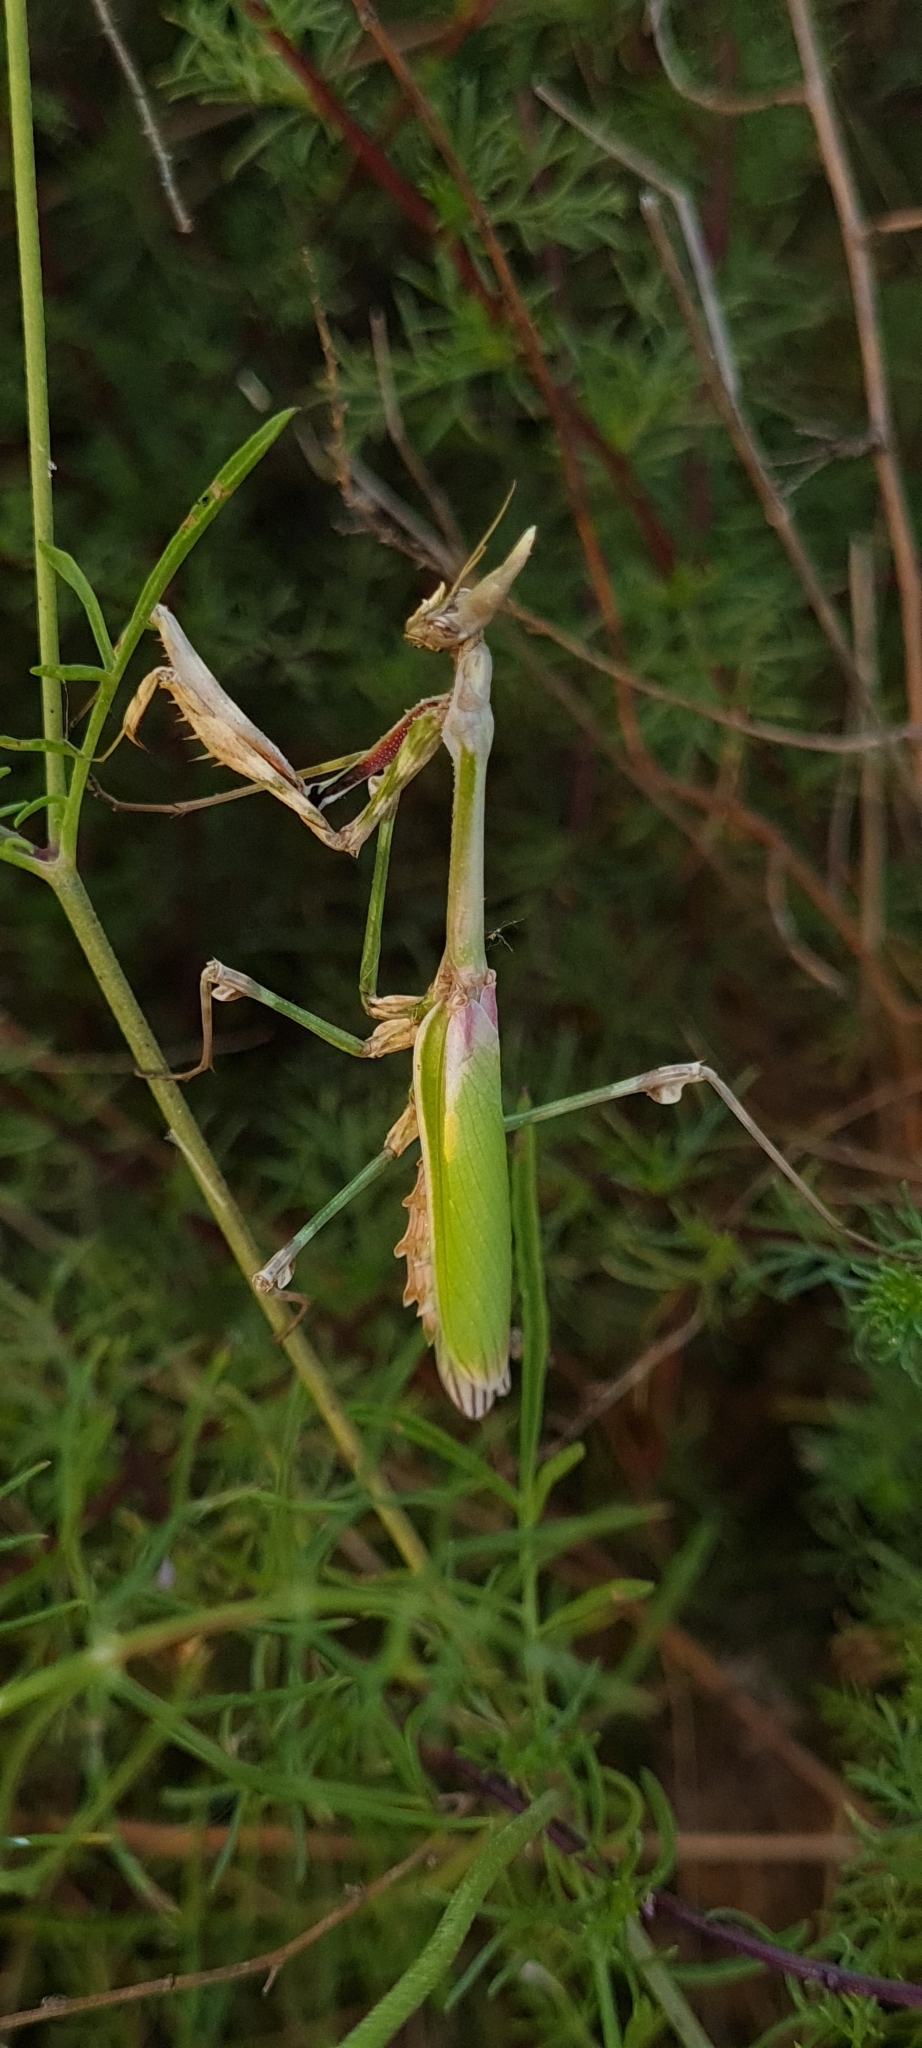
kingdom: Animalia
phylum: Arthropoda
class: Insecta
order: Mantodea
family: Empusidae
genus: Empusa
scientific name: Empusa pennata
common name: Conehead mantis
